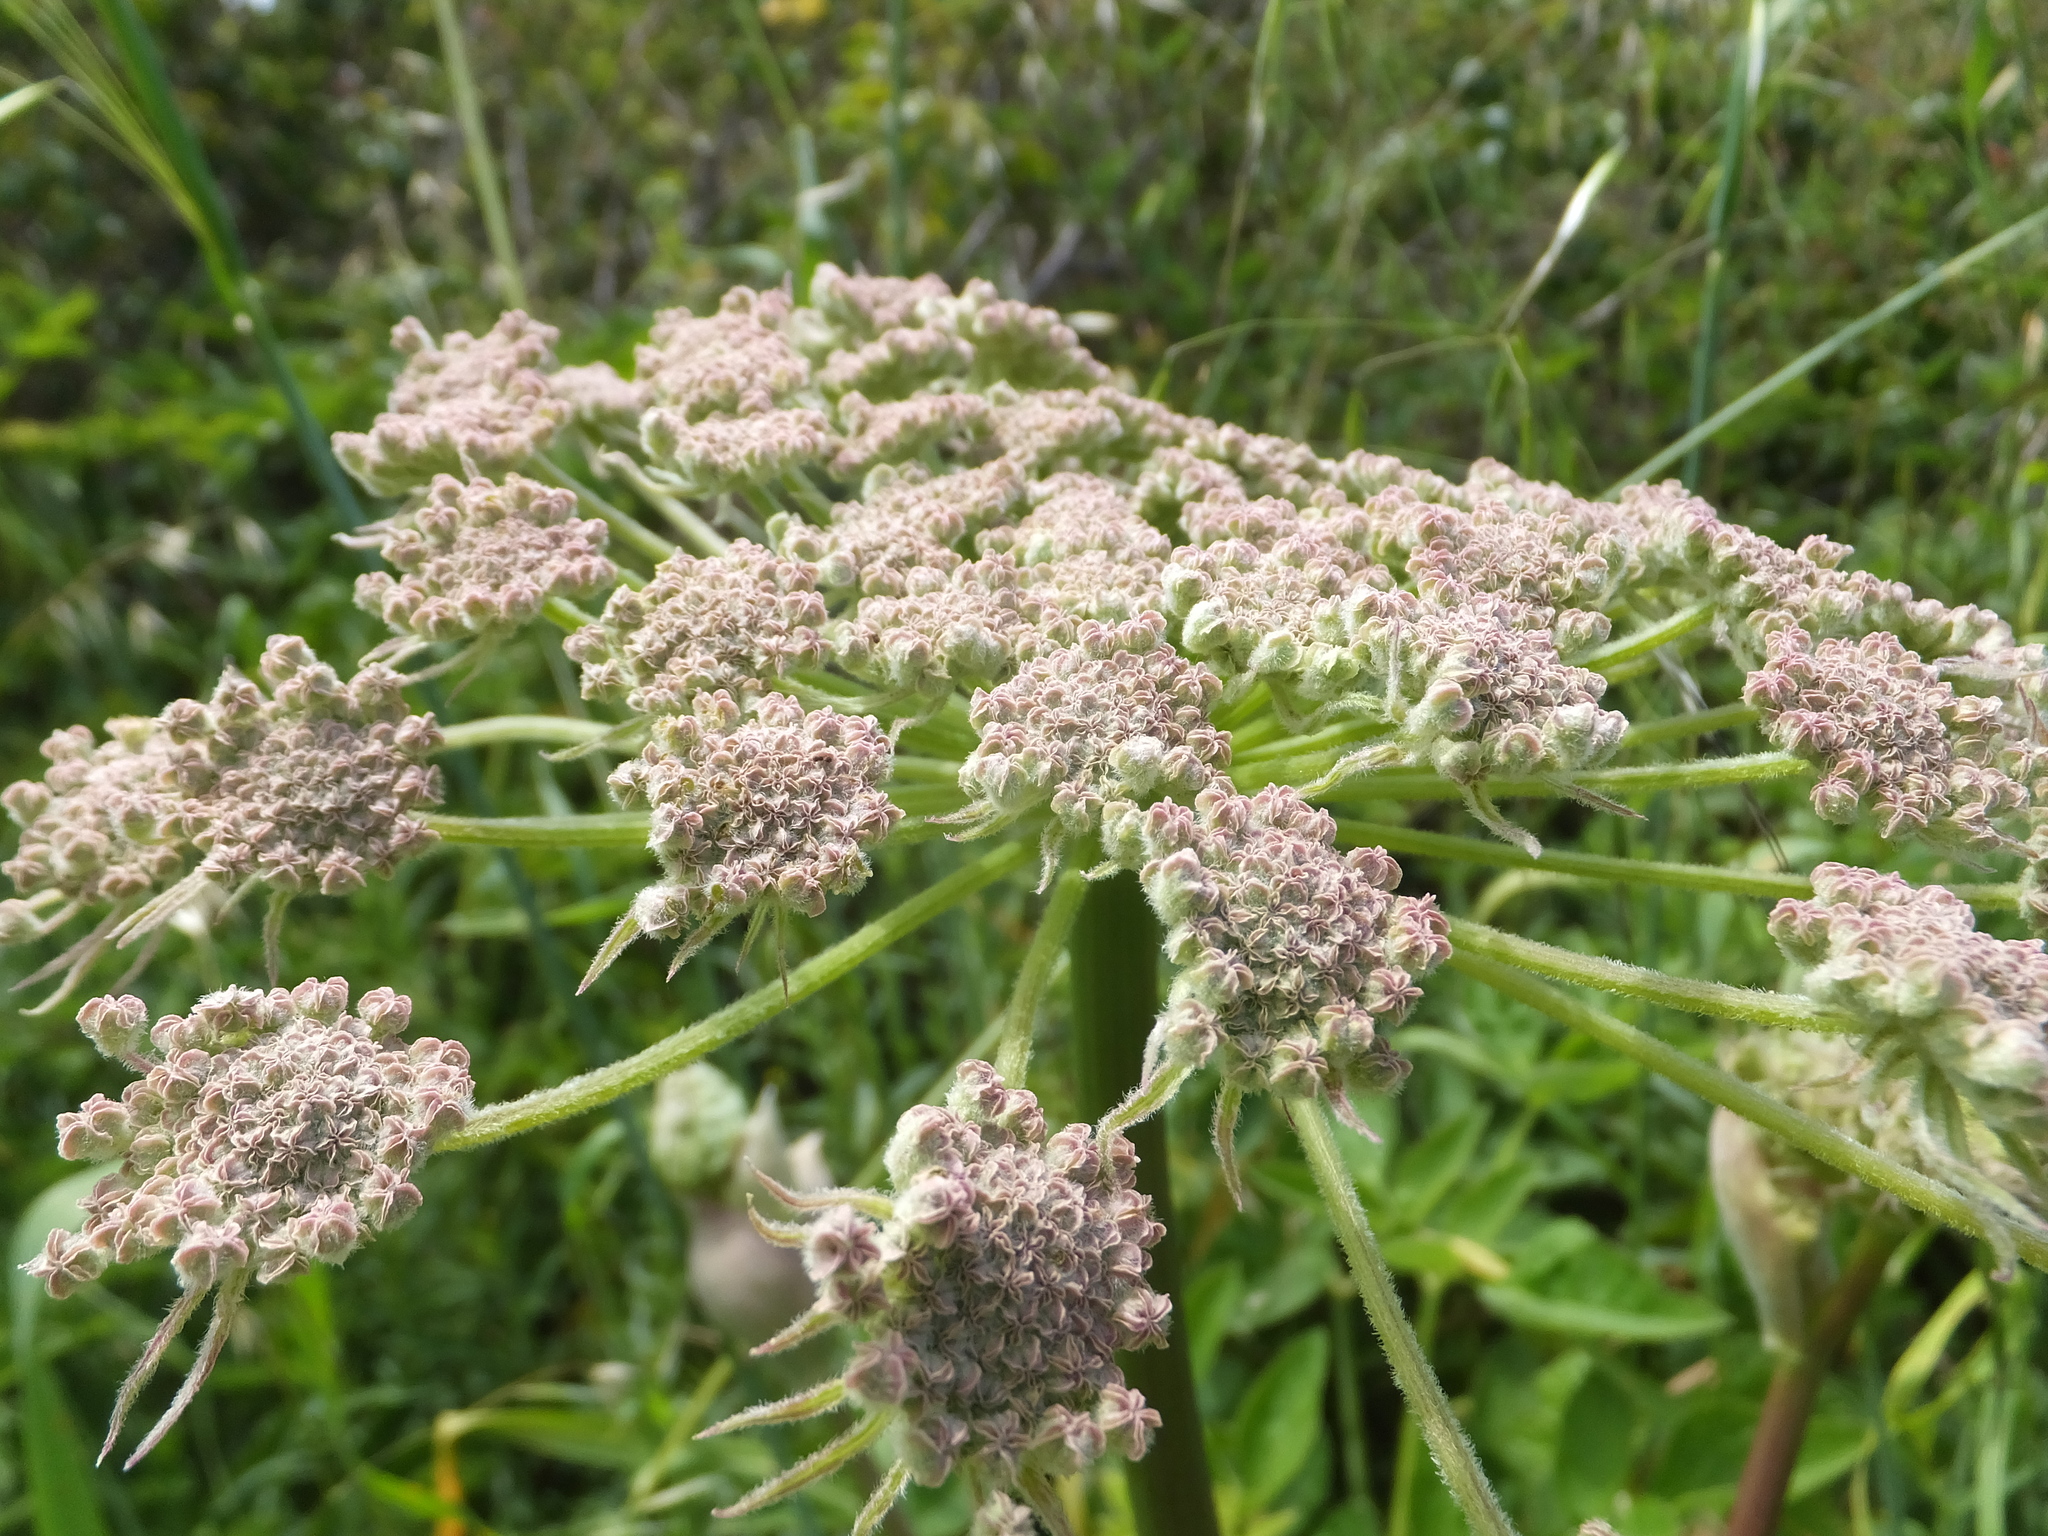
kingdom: Plantae
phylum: Tracheophyta
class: Magnoliopsida
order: Apiales
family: Apiaceae
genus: Angelica
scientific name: Angelica hendersonii
